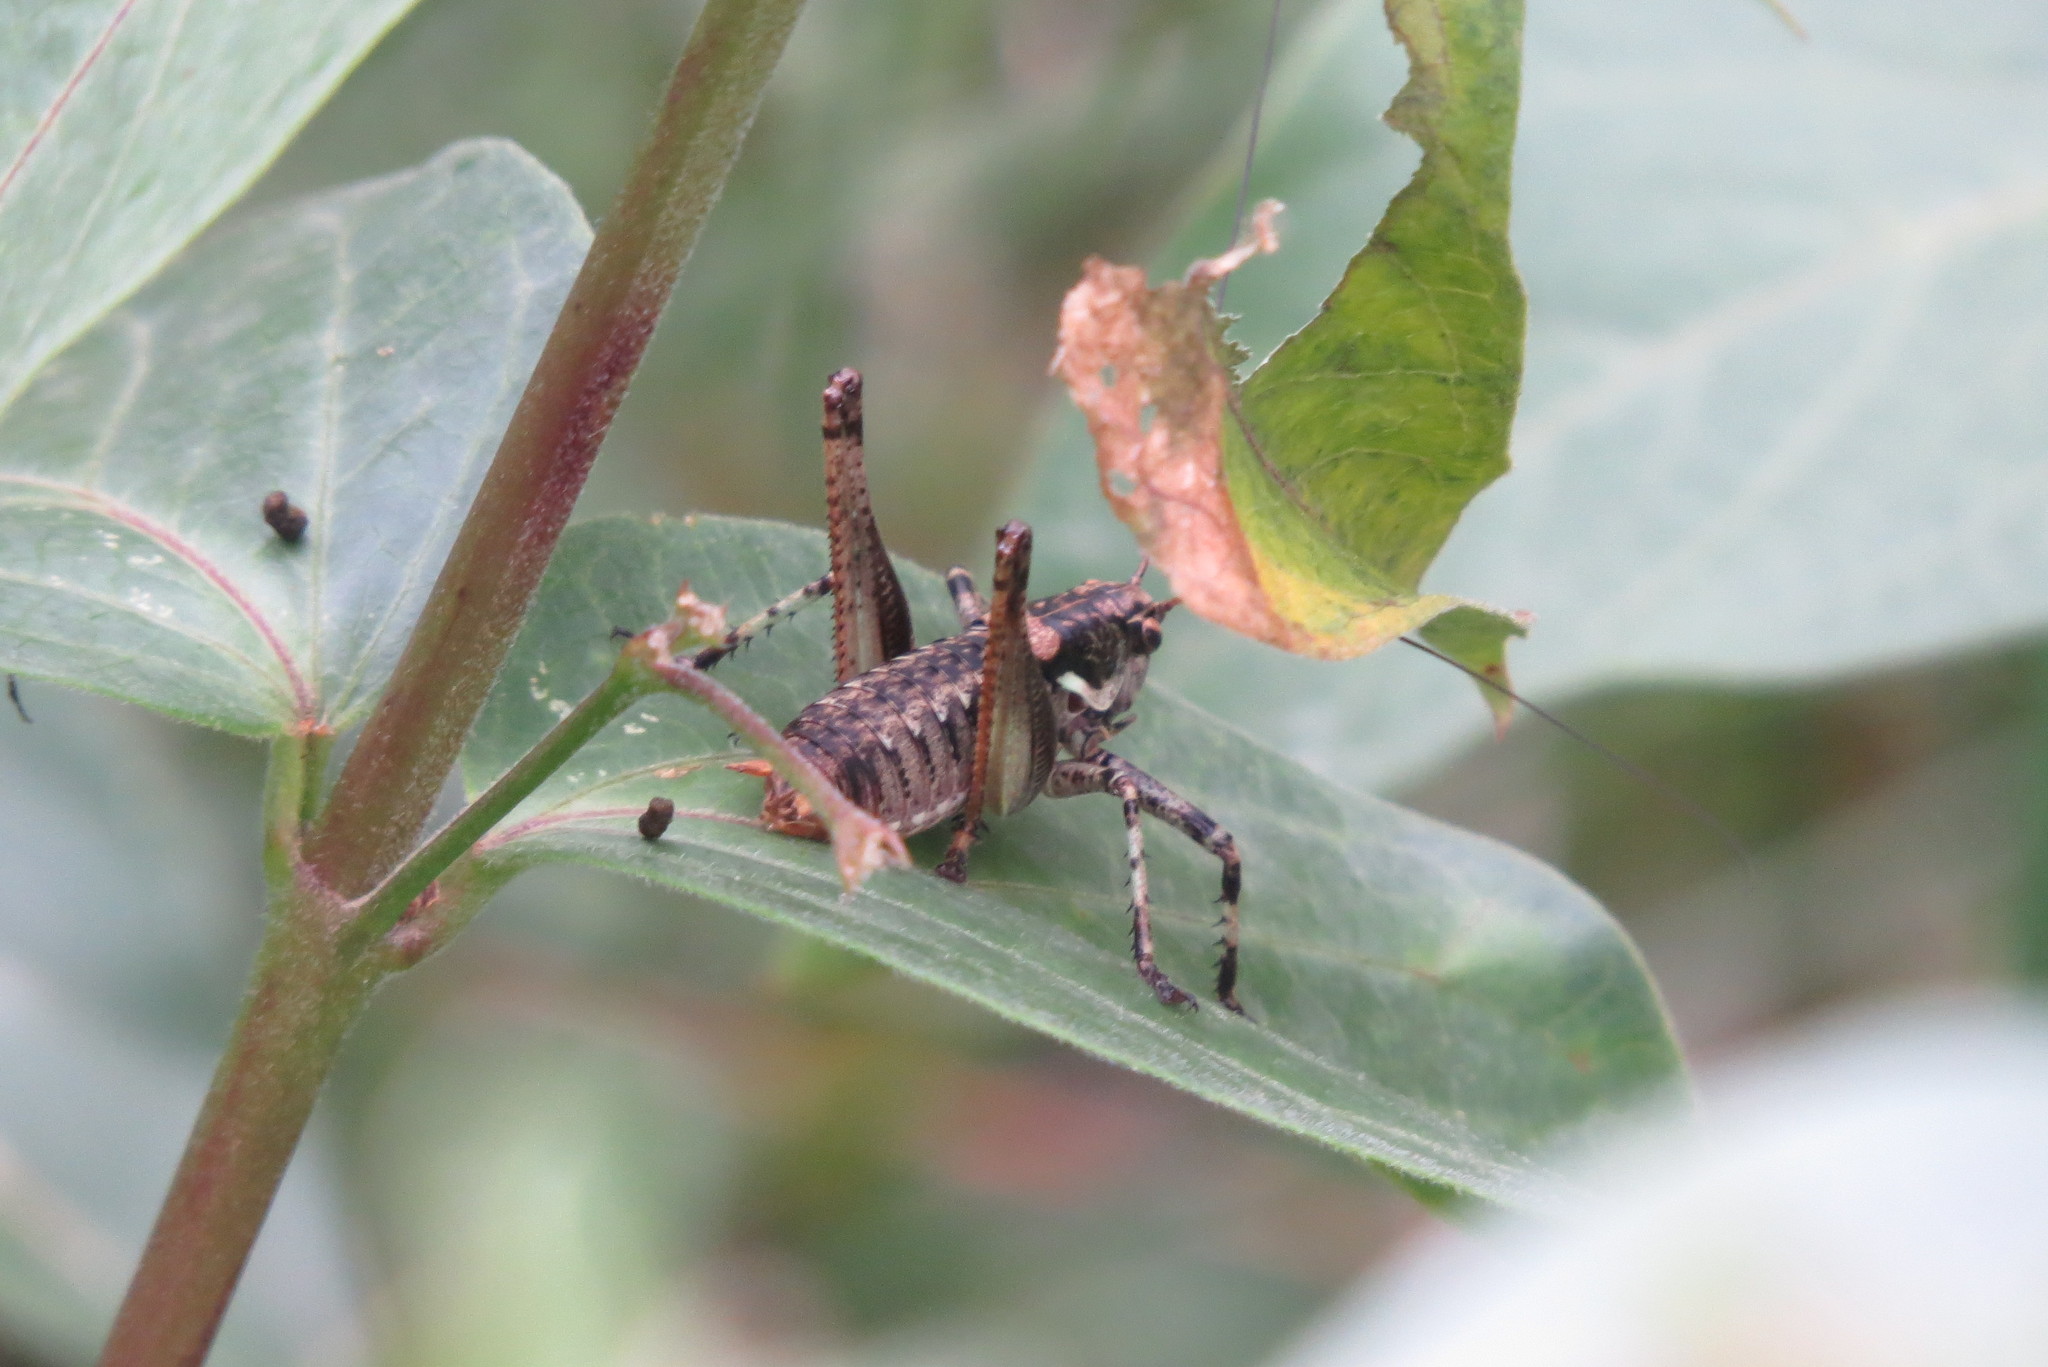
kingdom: Animalia
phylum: Arthropoda
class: Insecta
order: Orthoptera
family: Tettigoniidae
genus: Antaxius
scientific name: Antaxius pedestris
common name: Common mountain bush-cricket
